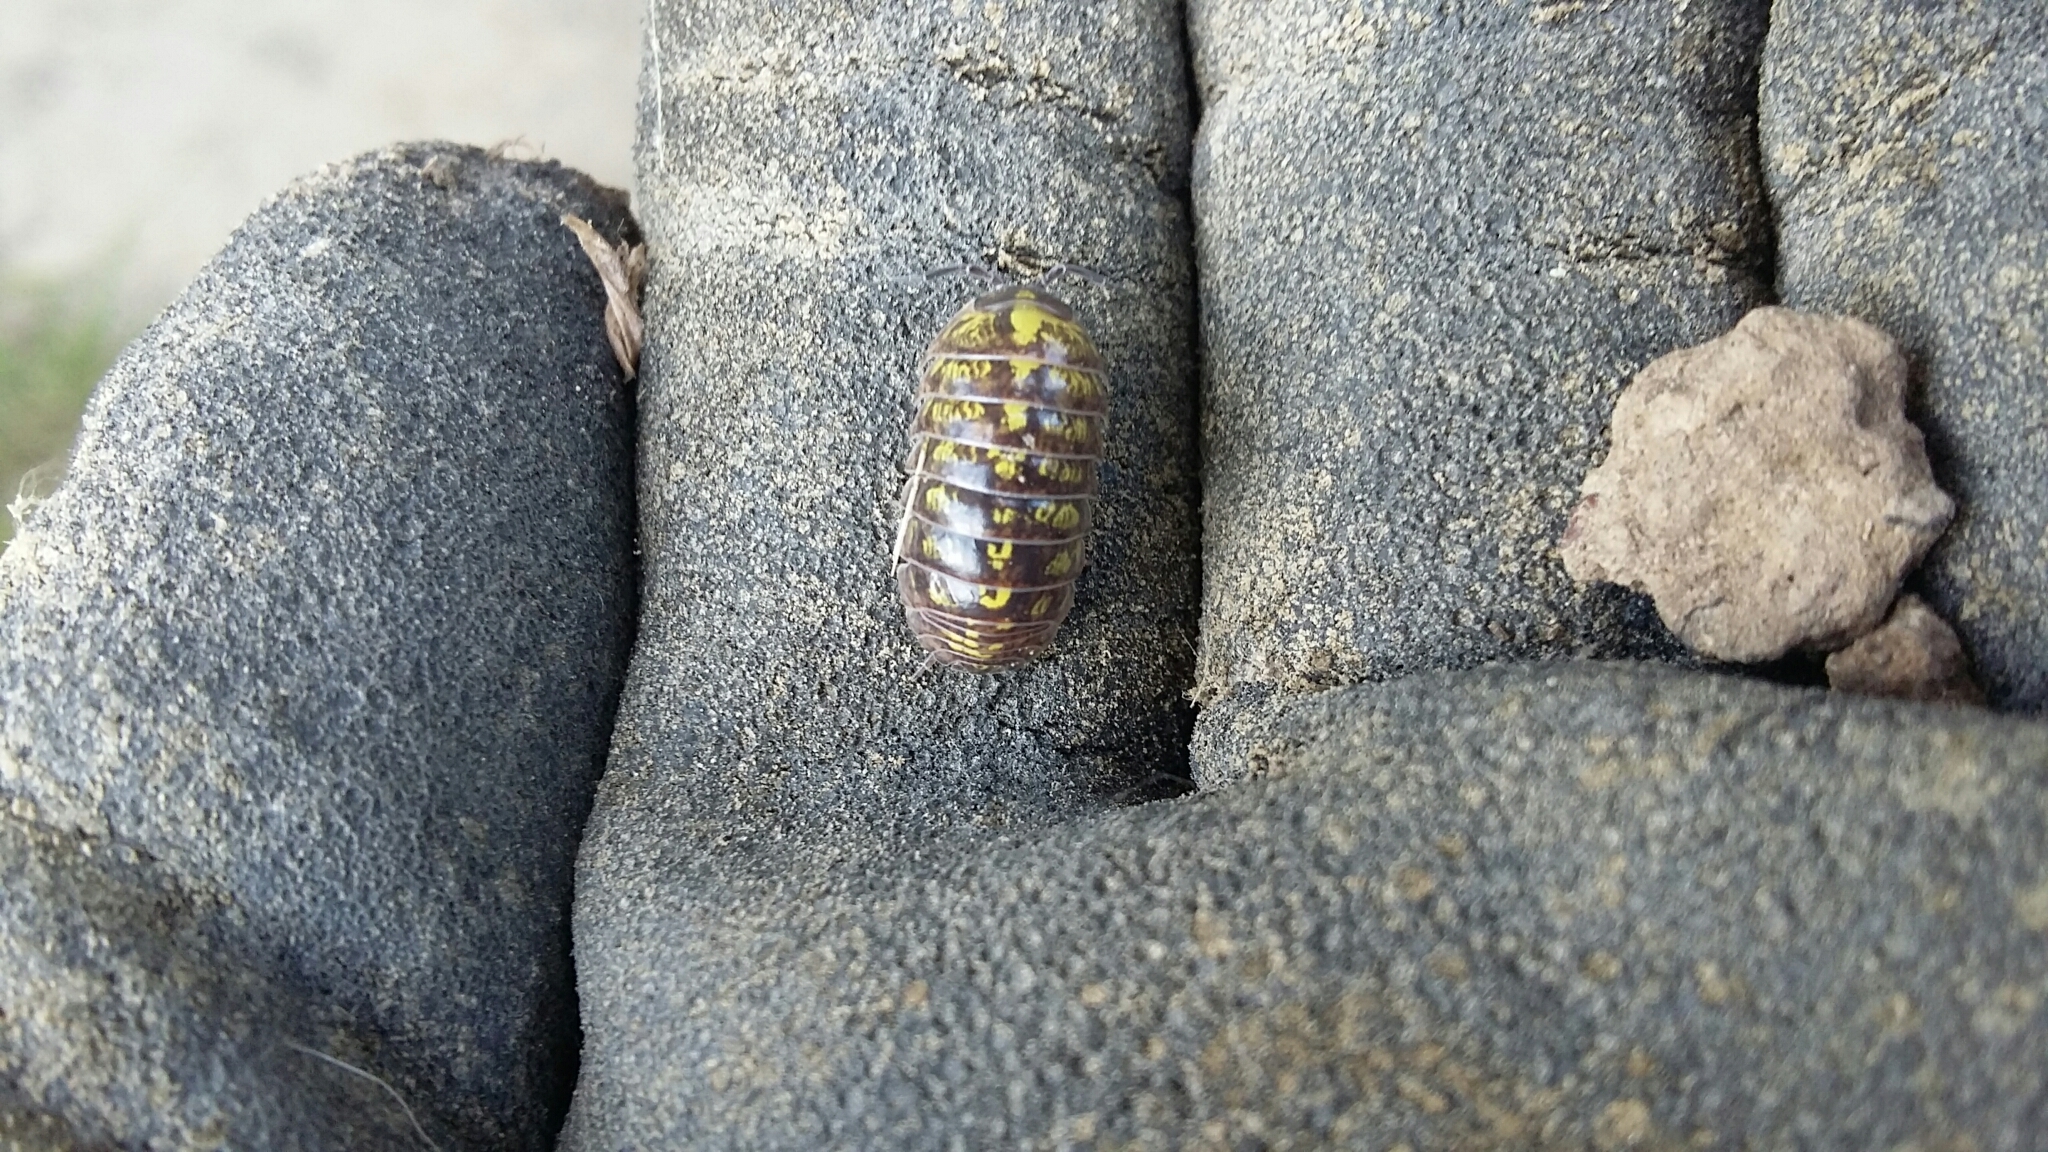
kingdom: Animalia
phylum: Arthropoda
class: Malacostraca
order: Isopoda
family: Armadillidiidae
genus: Armadillidium
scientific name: Armadillidium vulgare
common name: Common pill woodlouse
